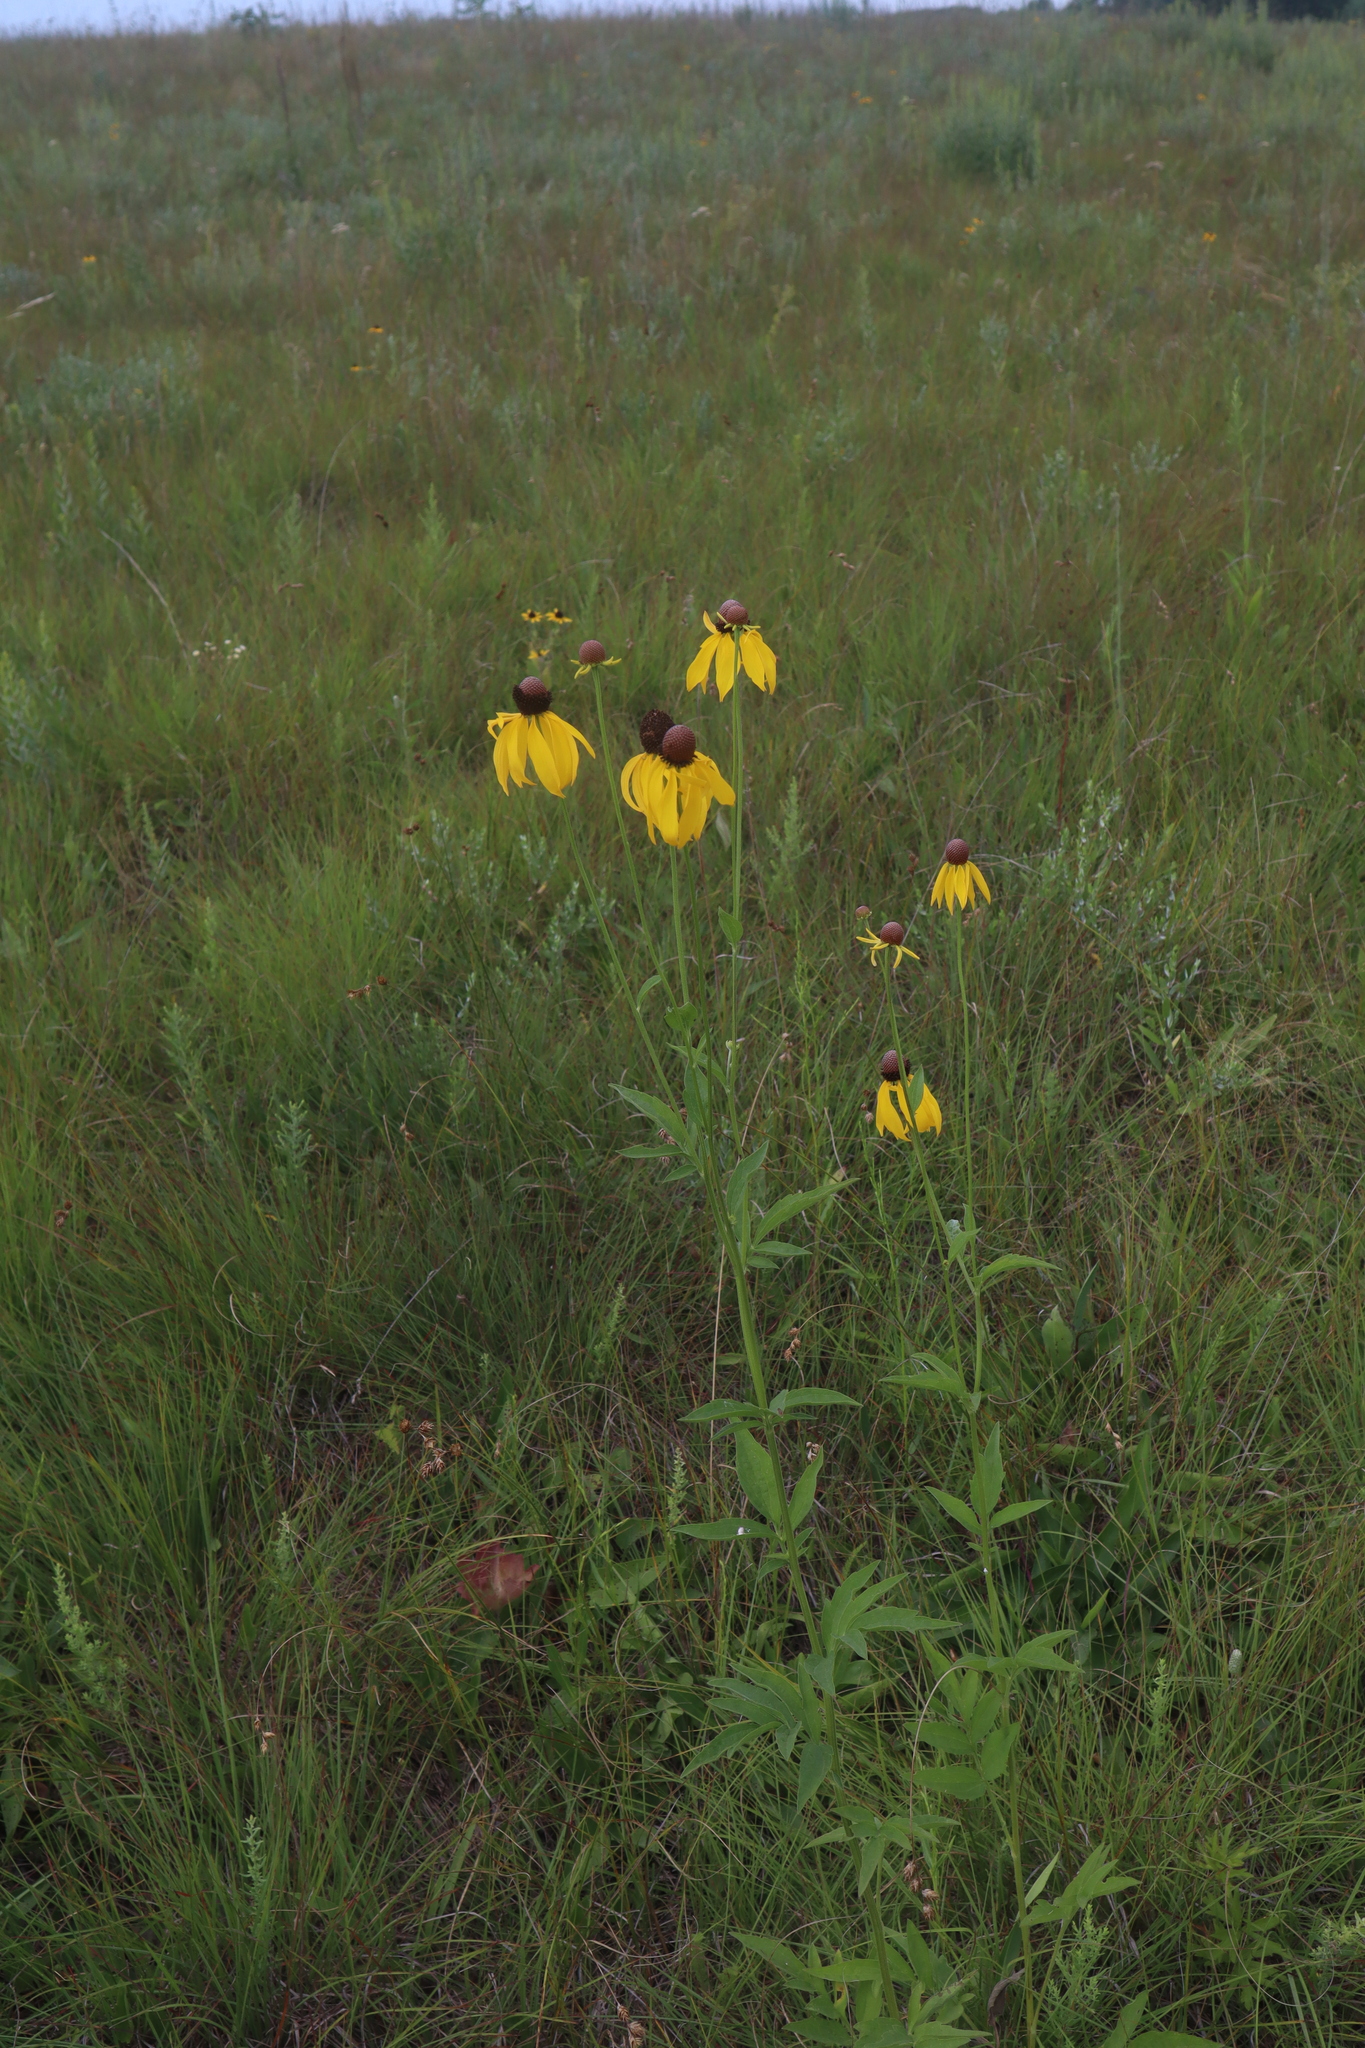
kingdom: Plantae
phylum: Tracheophyta
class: Magnoliopsida
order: Asterales
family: Asteraceae
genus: Ratibida
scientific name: Ratibida pinnata
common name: Drooping prairie-coneflower
